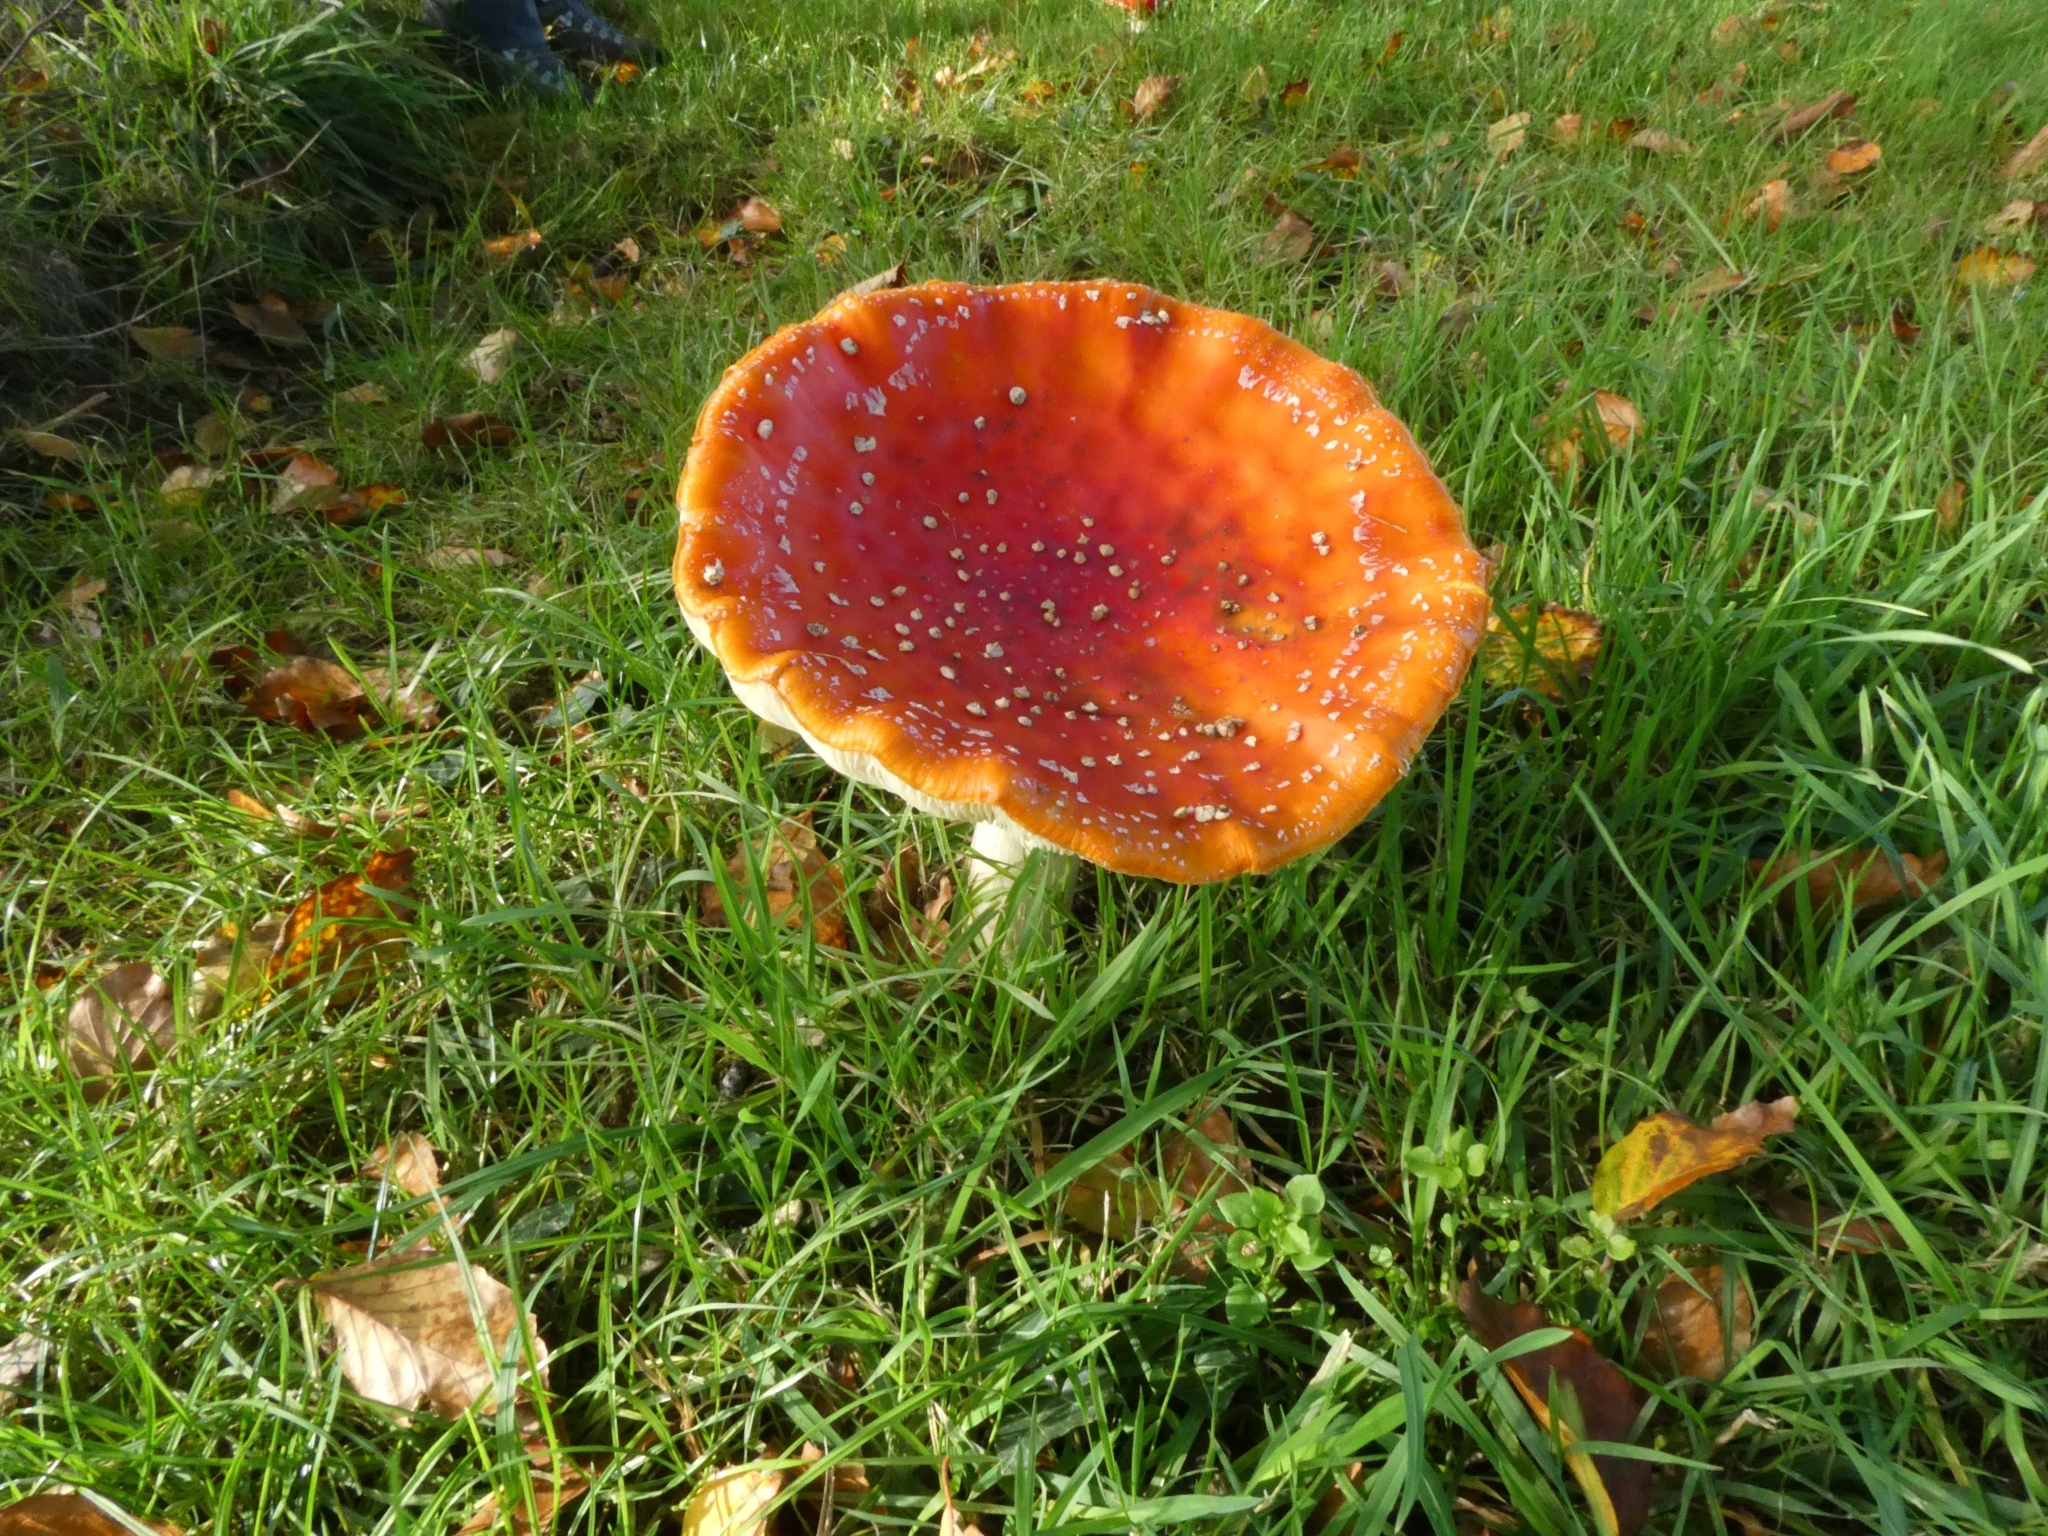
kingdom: Fungi
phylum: Basidiomycota
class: Agaricomycetes
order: Agaricales
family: Amanitaceae
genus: Amanita
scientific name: Amanita muscaria
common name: Fly agaric
